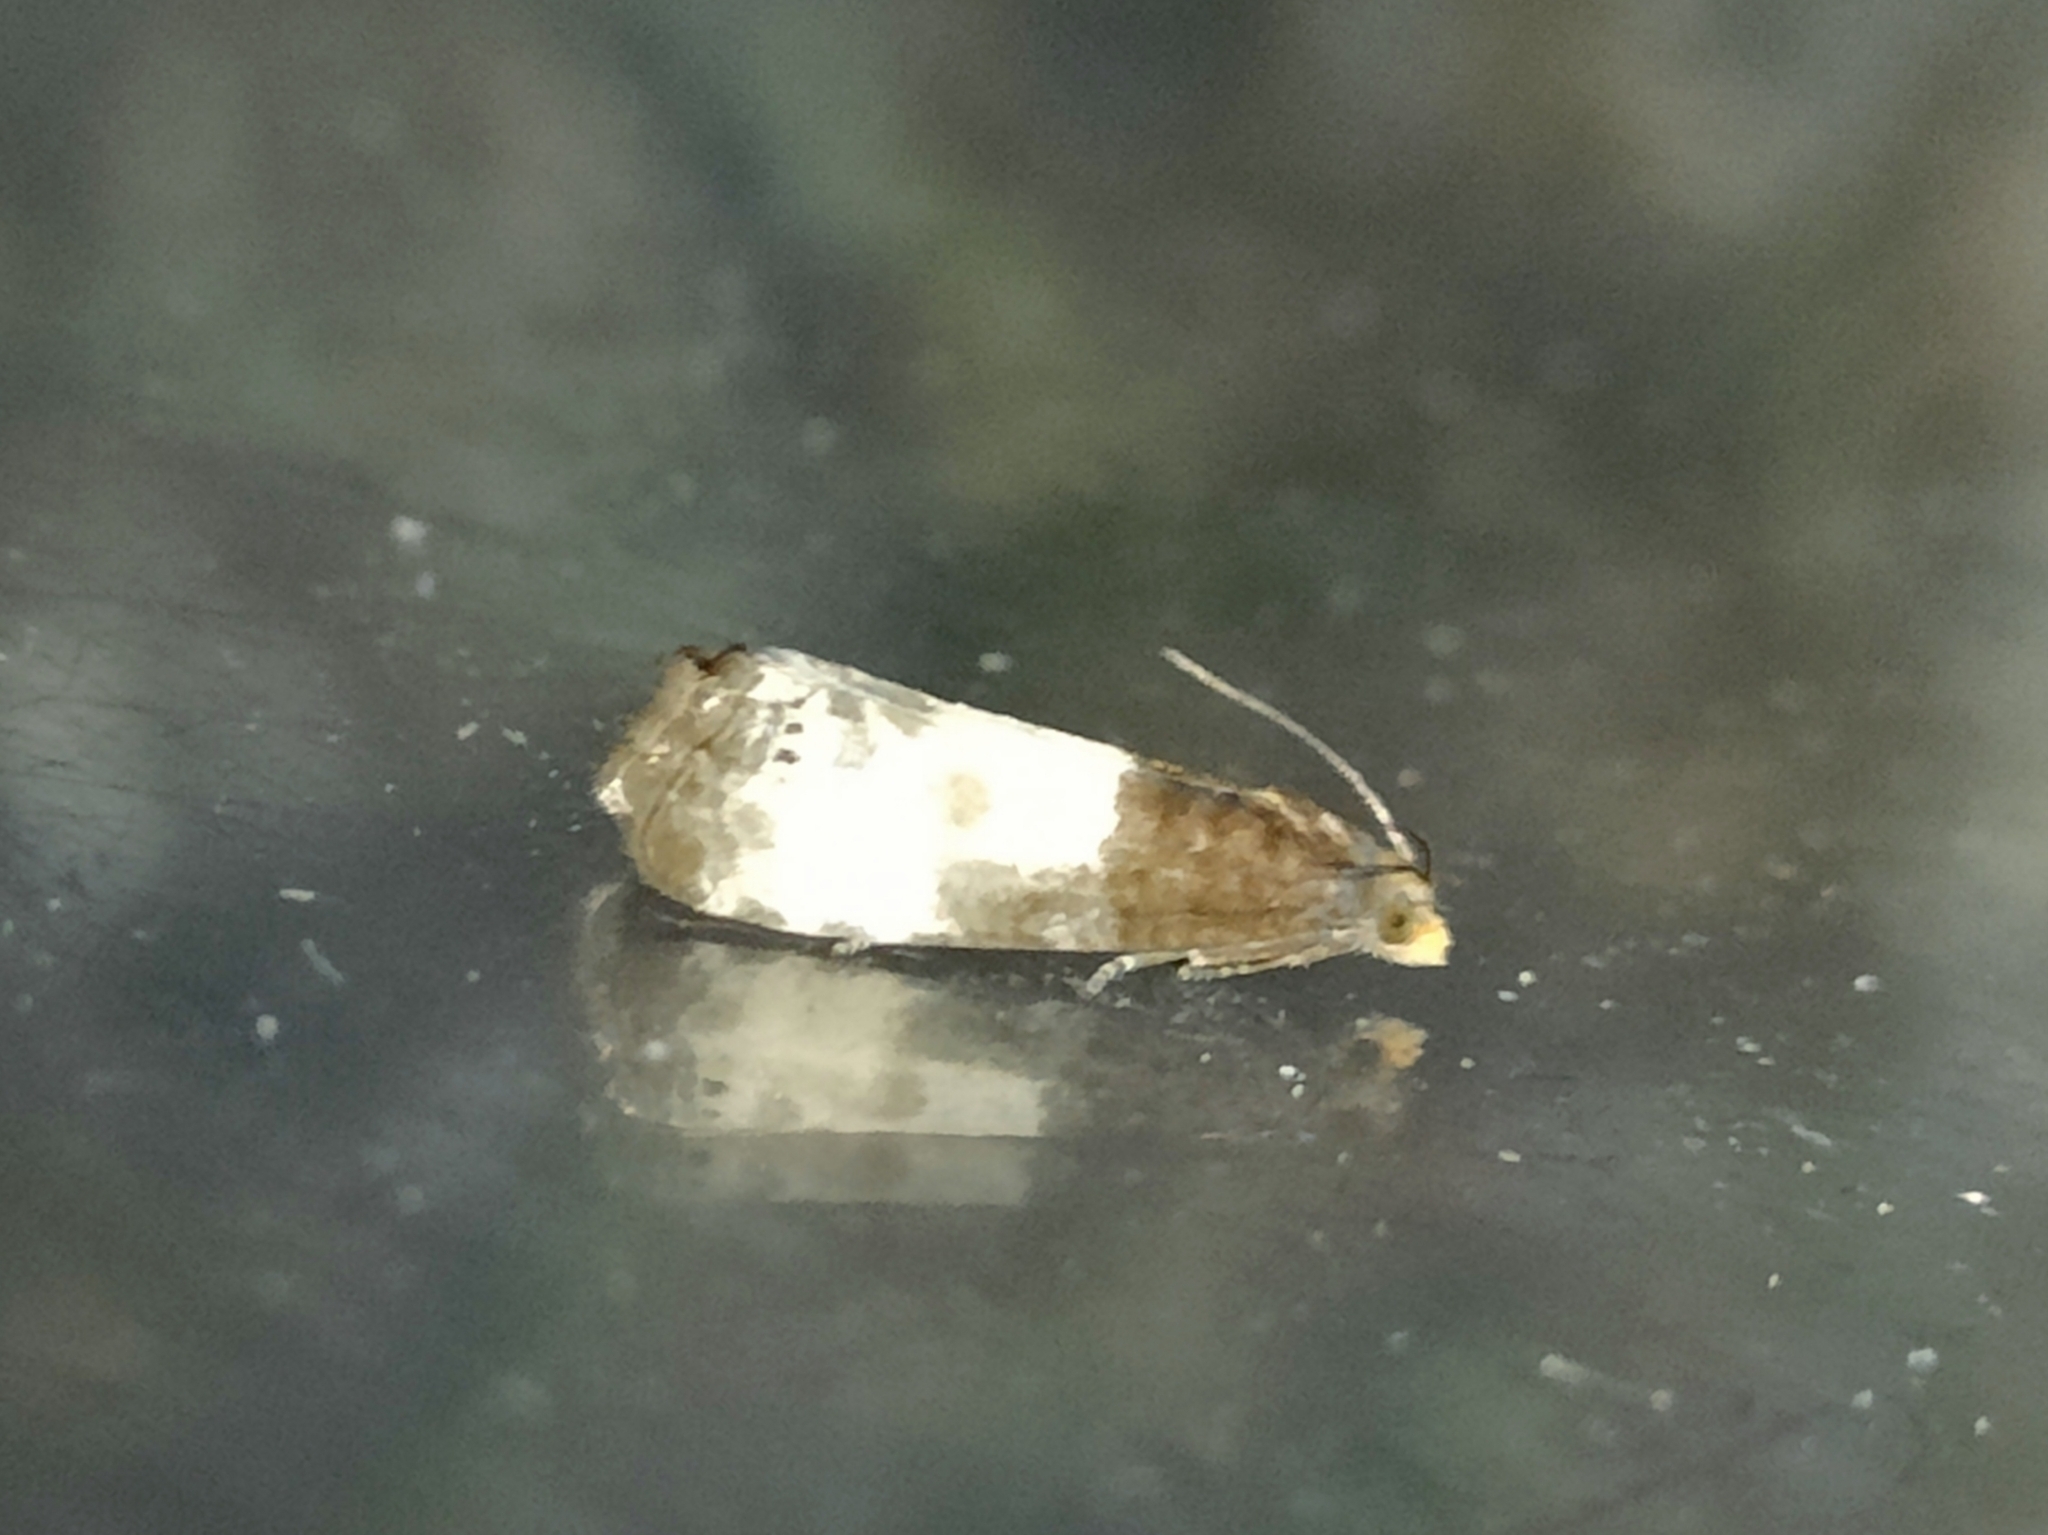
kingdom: Animalia
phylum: Arthropoda
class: Insecta
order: Lepidoptera
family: Tortricidae
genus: Notocelia
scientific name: Notocelia cynosbatella
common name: Yellow-faced bell moth
